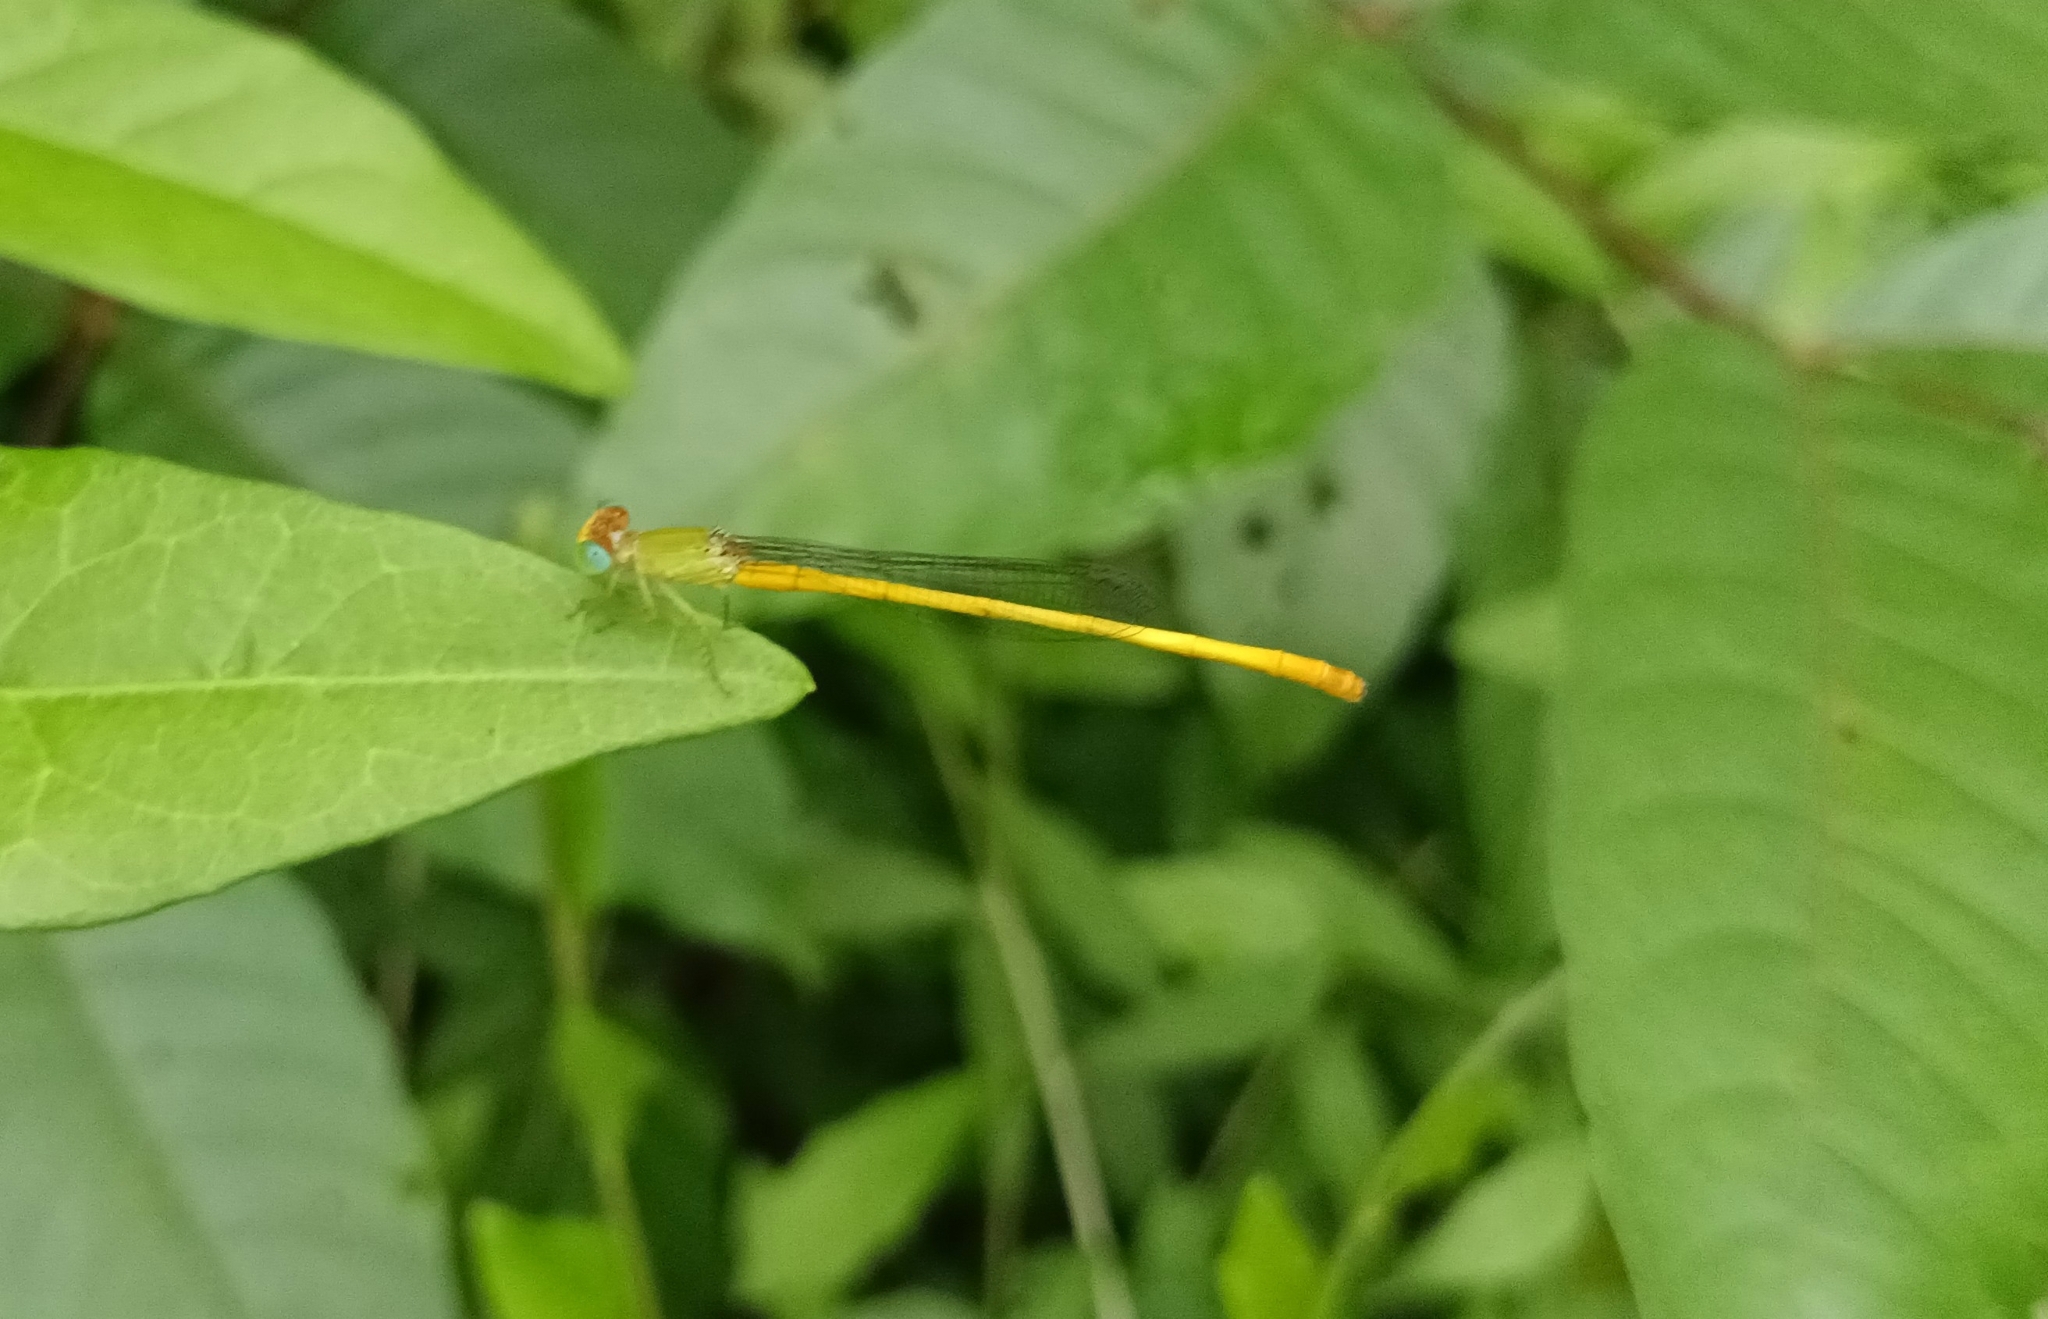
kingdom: Animalia
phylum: Arthropoda
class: Insecta
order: Odonata
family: Coenagrionidae
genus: Ceriagrion
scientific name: Ceriagrion coromandelianum
